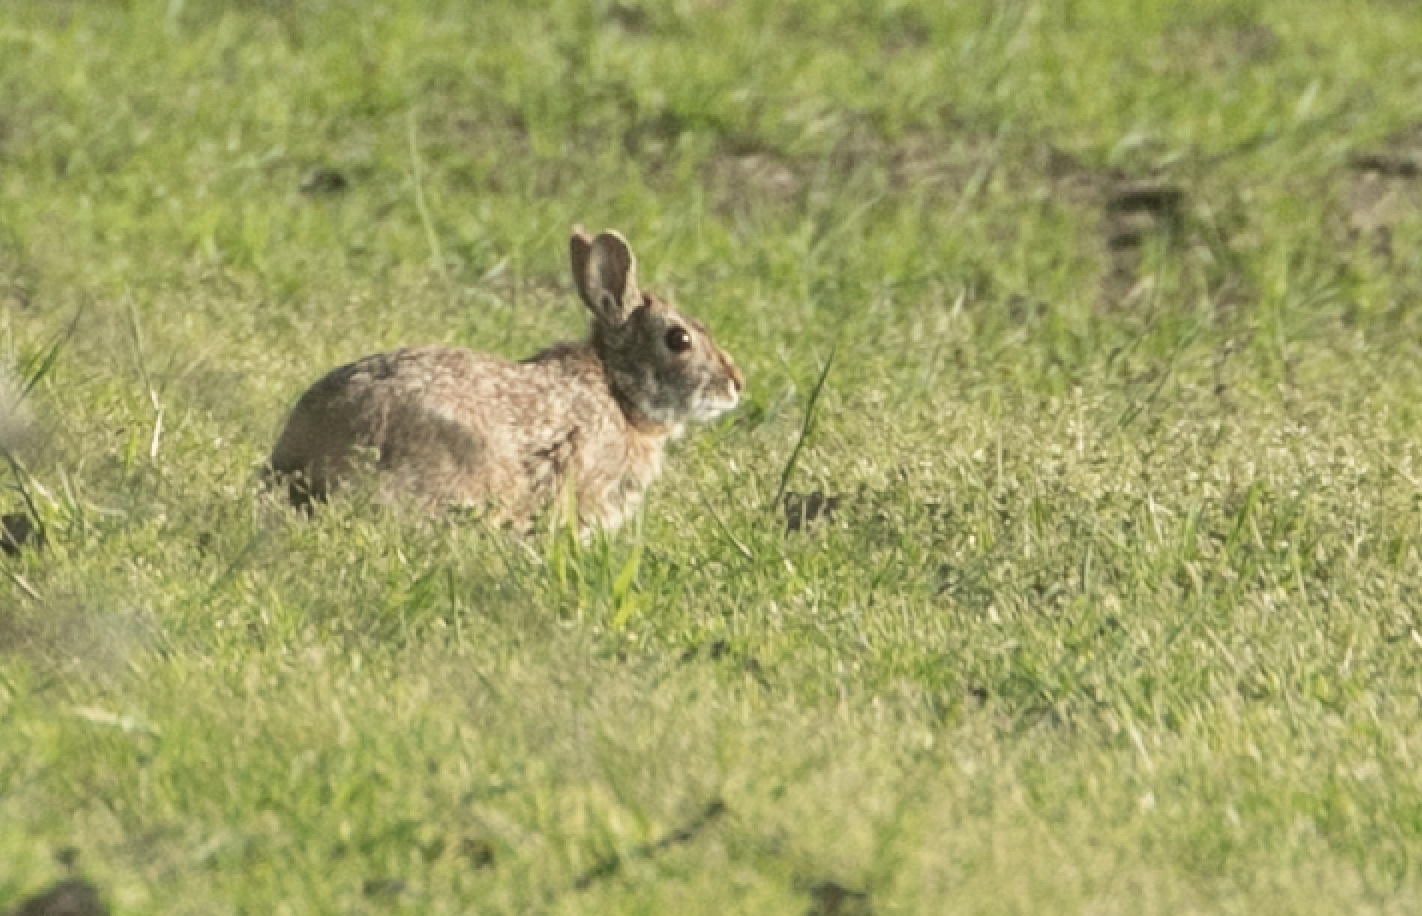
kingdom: Animalia
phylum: Chordata
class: Mammalia
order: Lagomorpha
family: Leporidae
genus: Sylvilagus
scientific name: Sylvilagus floridanus
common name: Eastern cottontail
